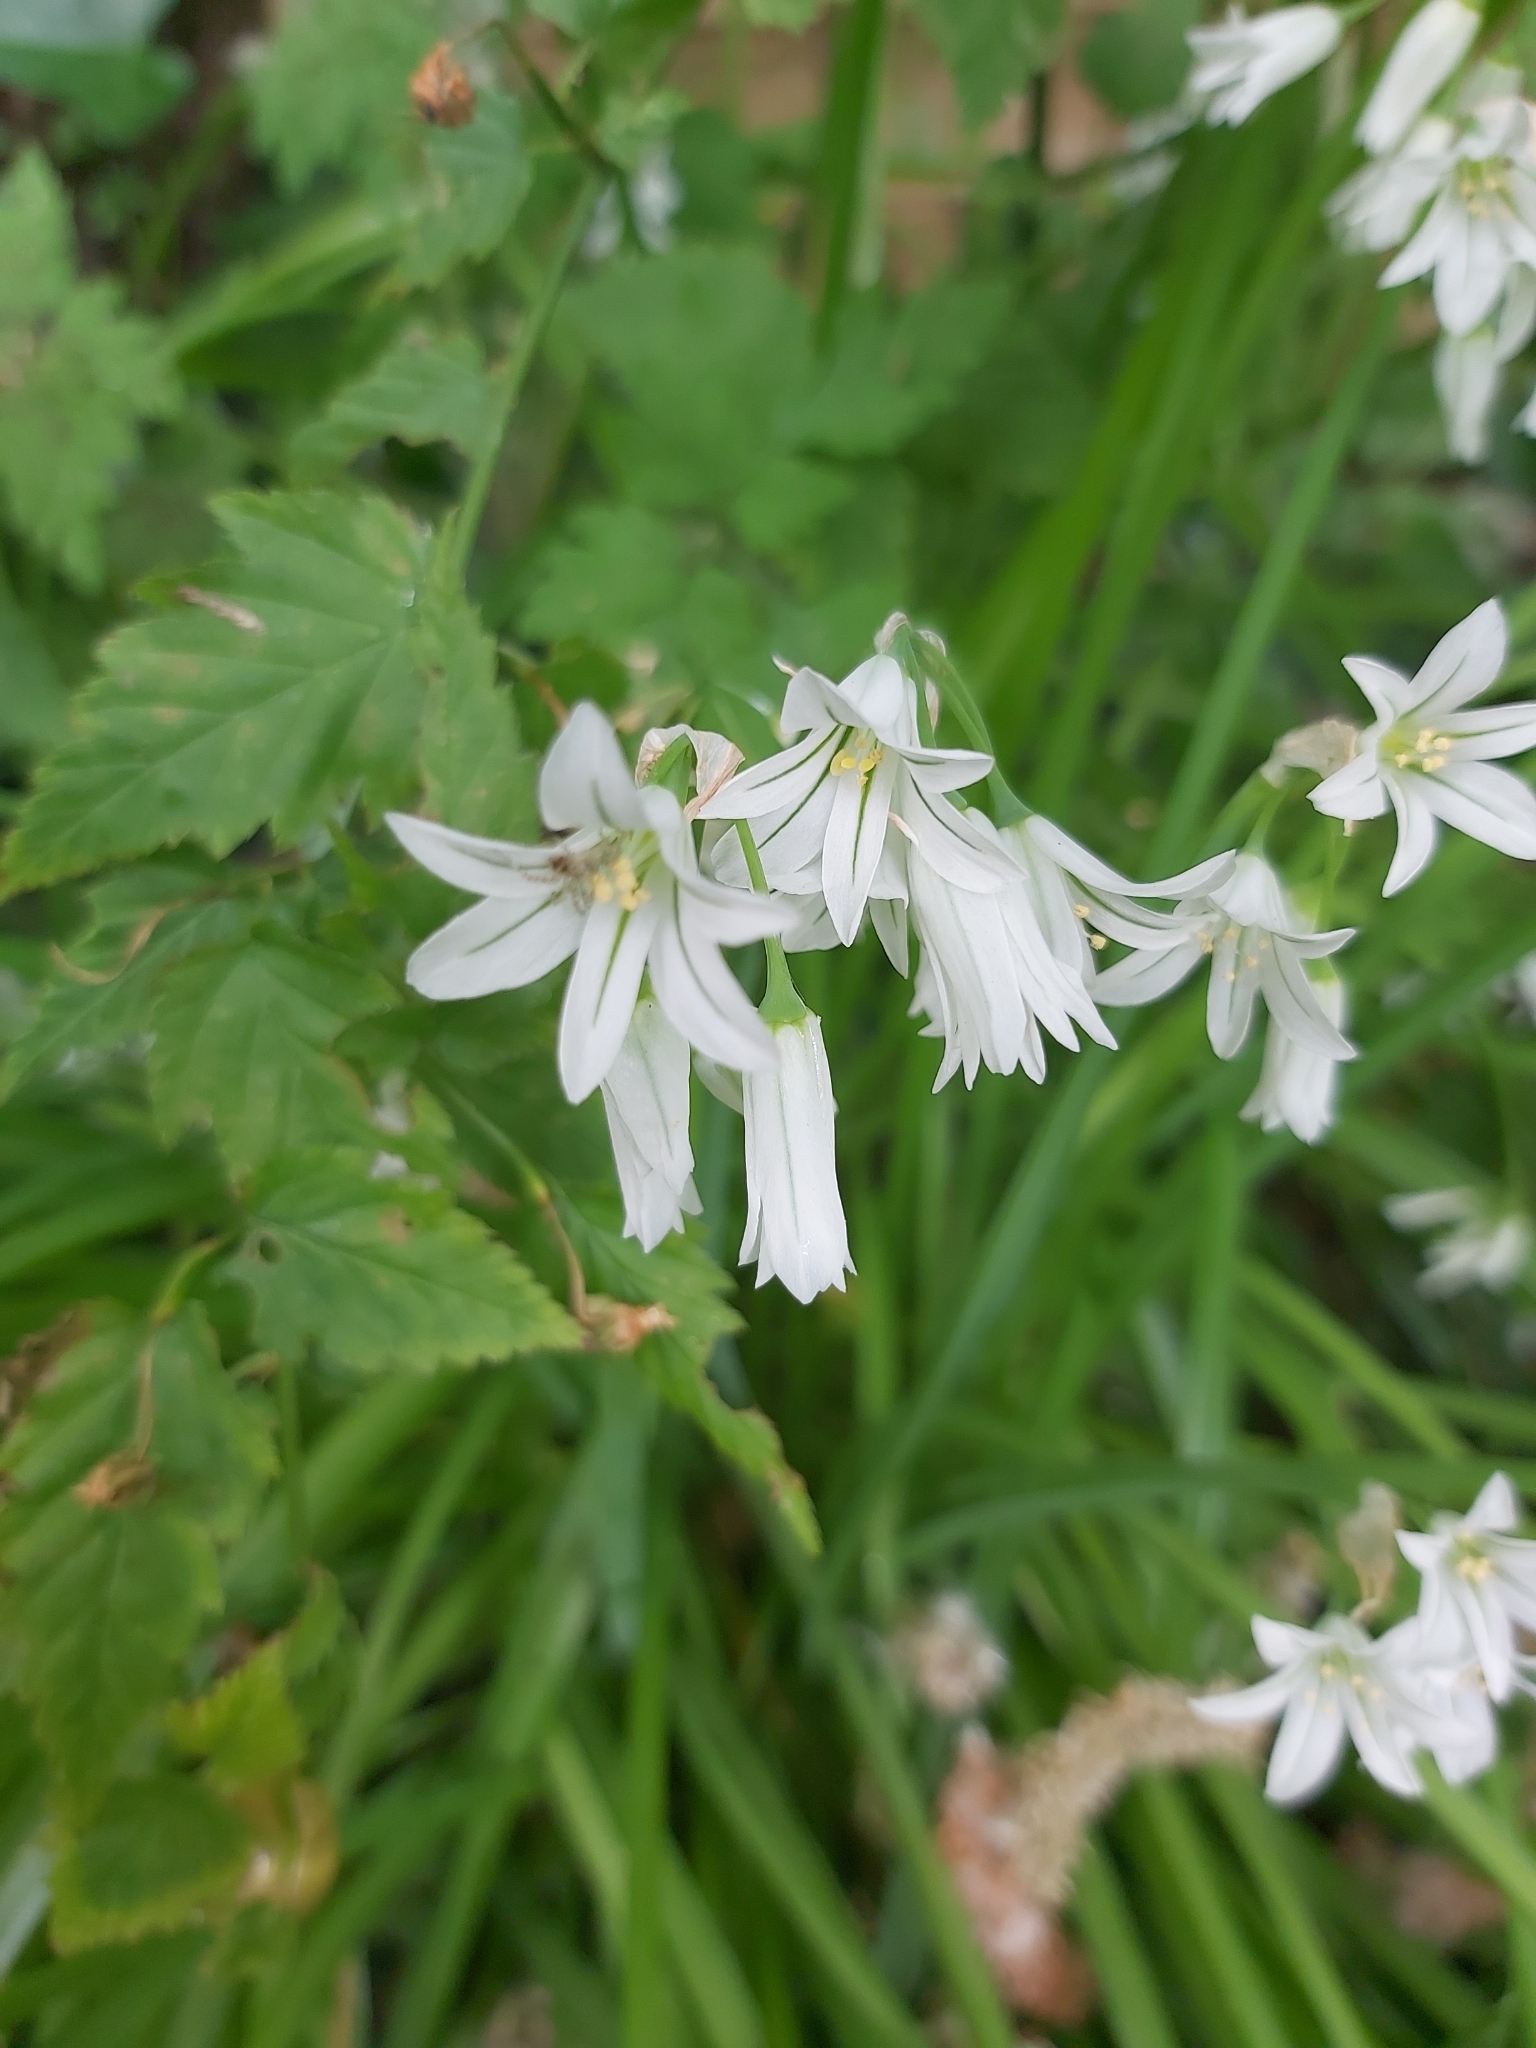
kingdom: Plantae
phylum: Tracheophyta
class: Liliopsida
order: Asparagales
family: Amaryllidaceae
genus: Allium
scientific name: Allium triquetrum
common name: Three-cornered garlic
